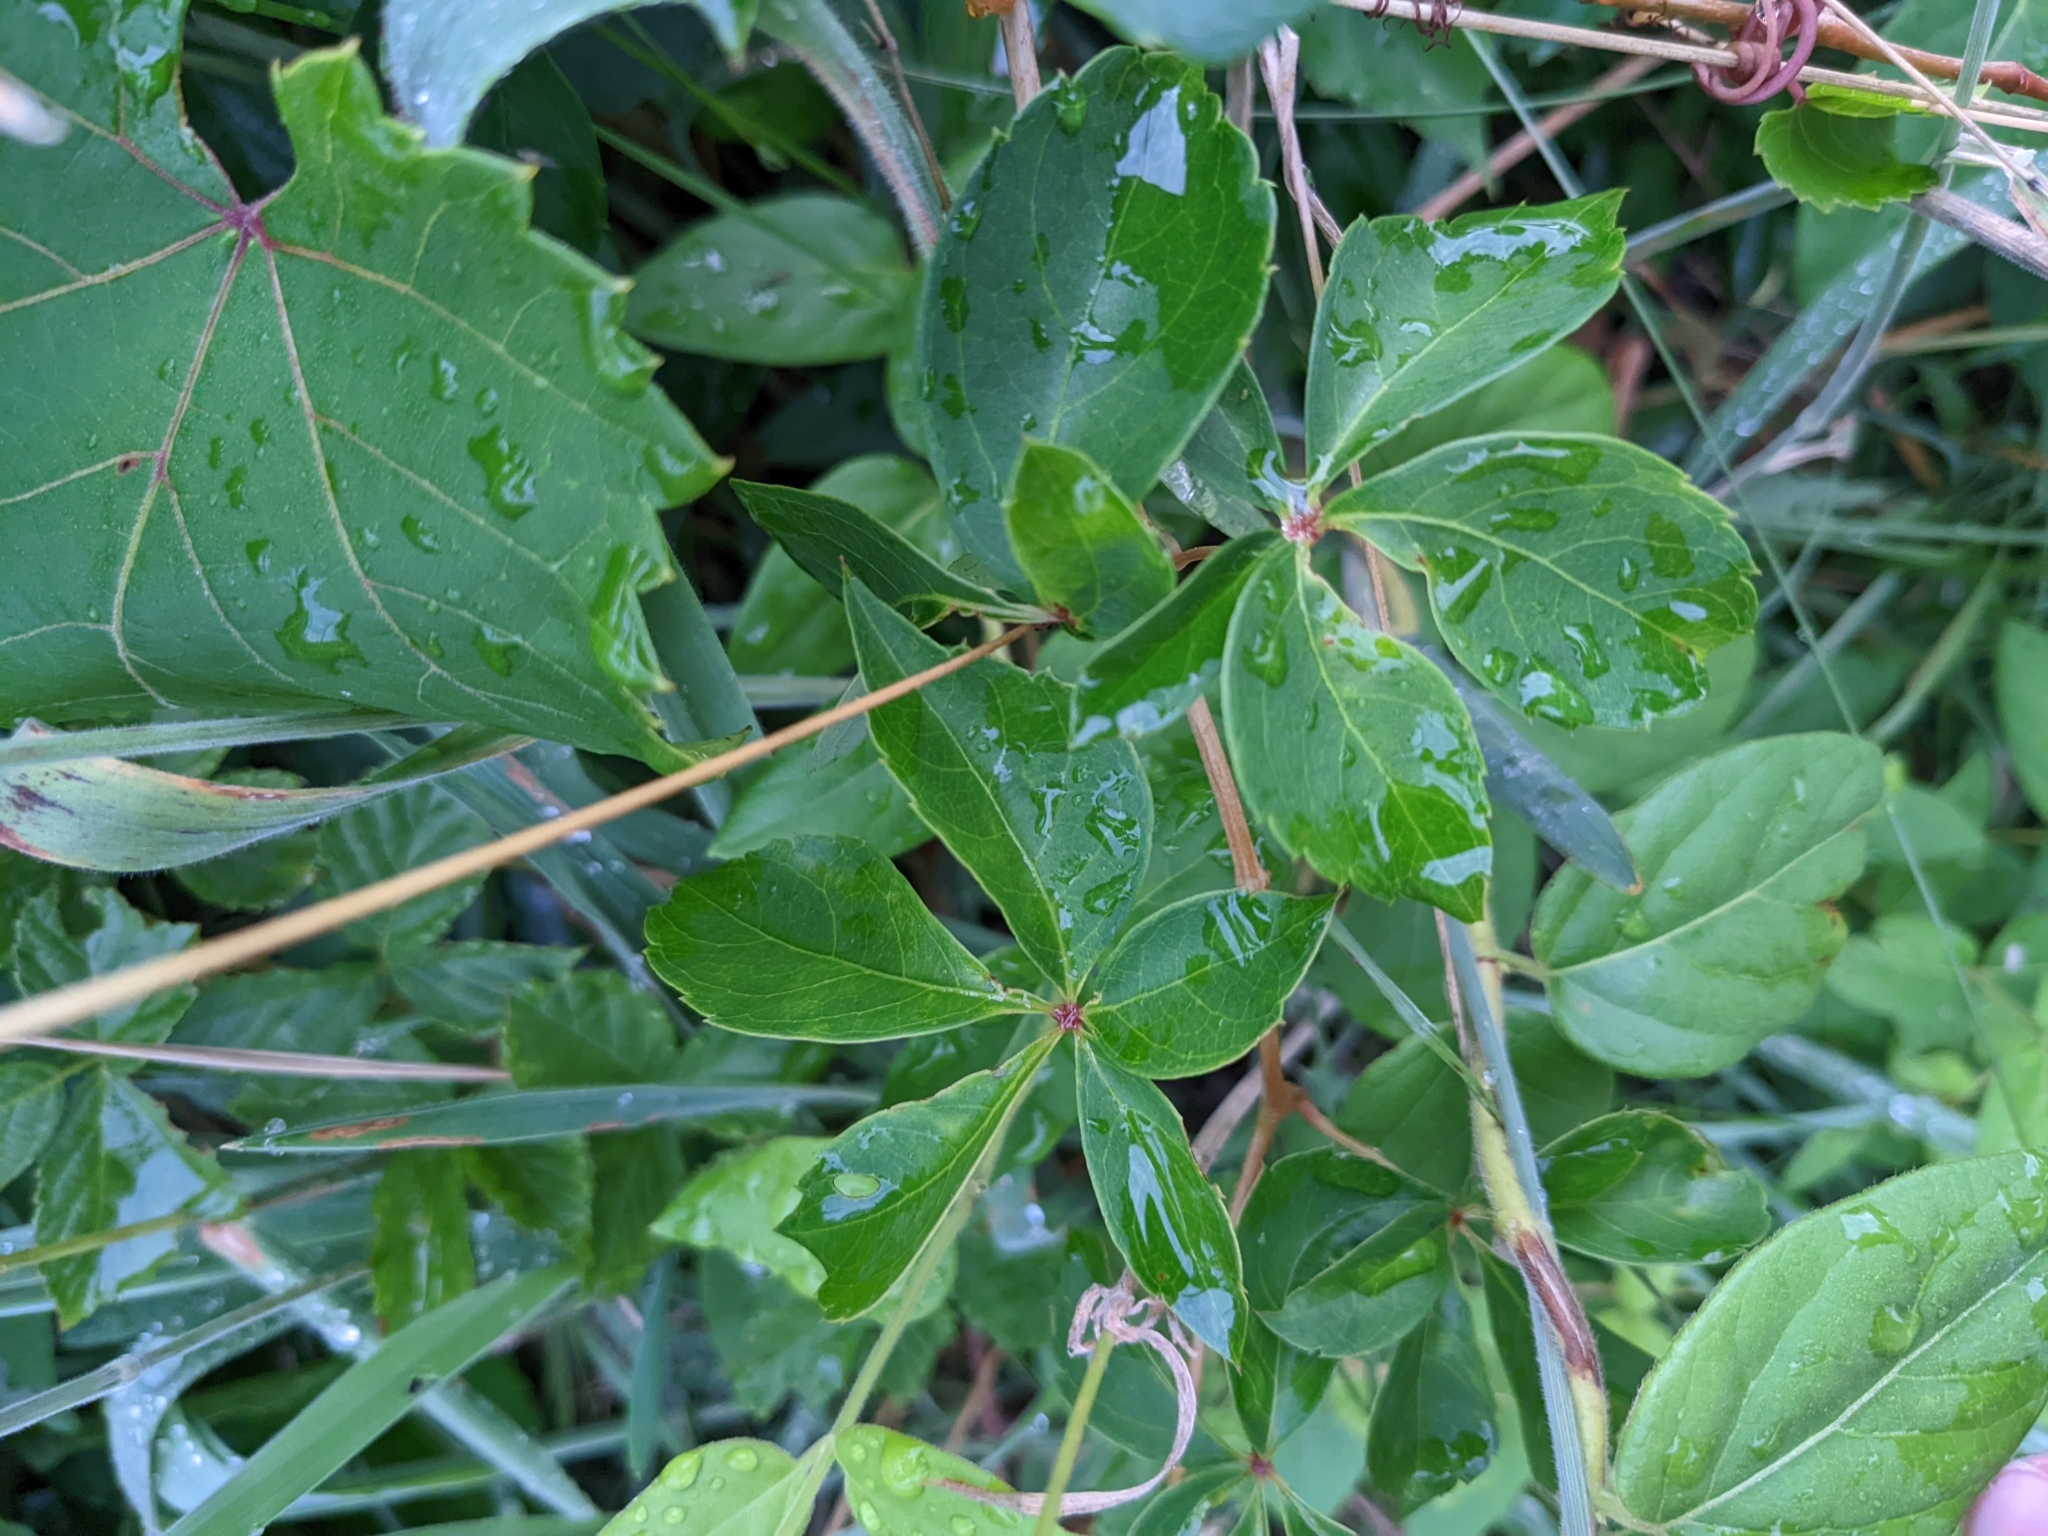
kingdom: Plantae
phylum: Tracheophyta
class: Magnoliopsida
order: Vitales
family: Vitaceae
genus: Parthenocissus
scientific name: Parthenocissus quinquefolia
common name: Virginia-creeper
